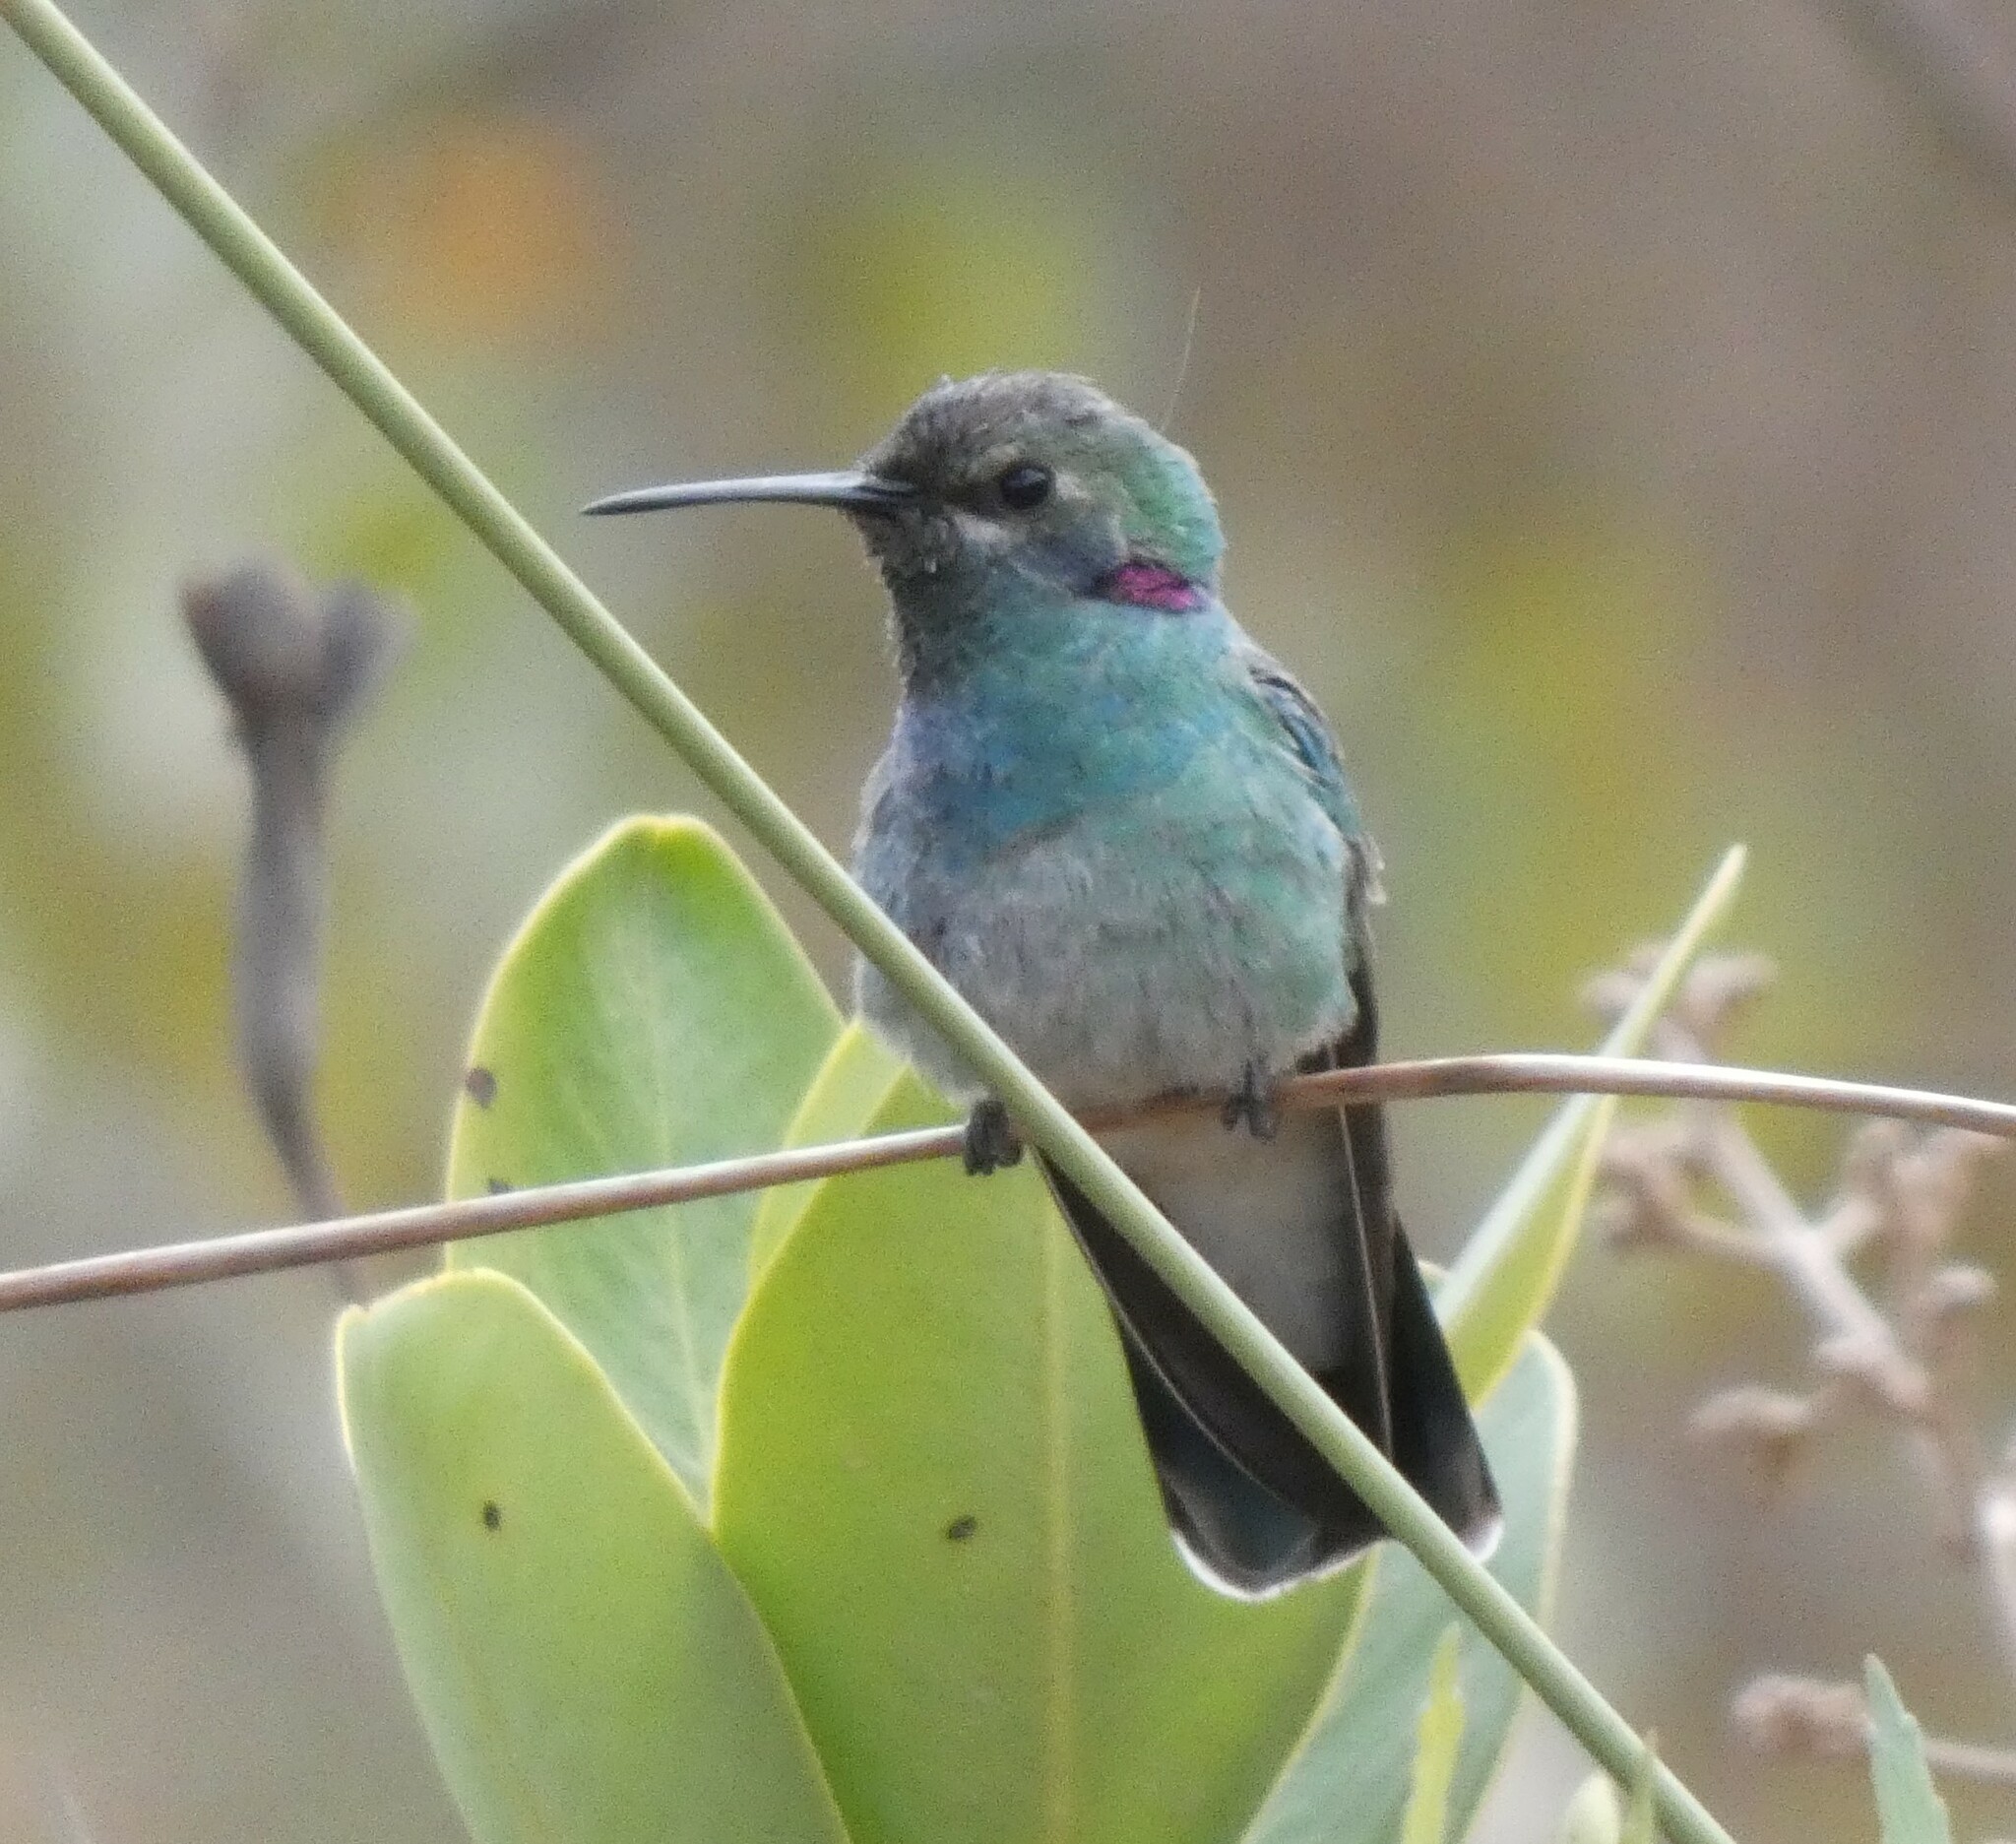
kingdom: Animalia
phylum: Chordata
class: Aves
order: Apodiformes
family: Trochilidae
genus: Colibri
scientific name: Colibri serrirostris
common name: White-vented violetear
